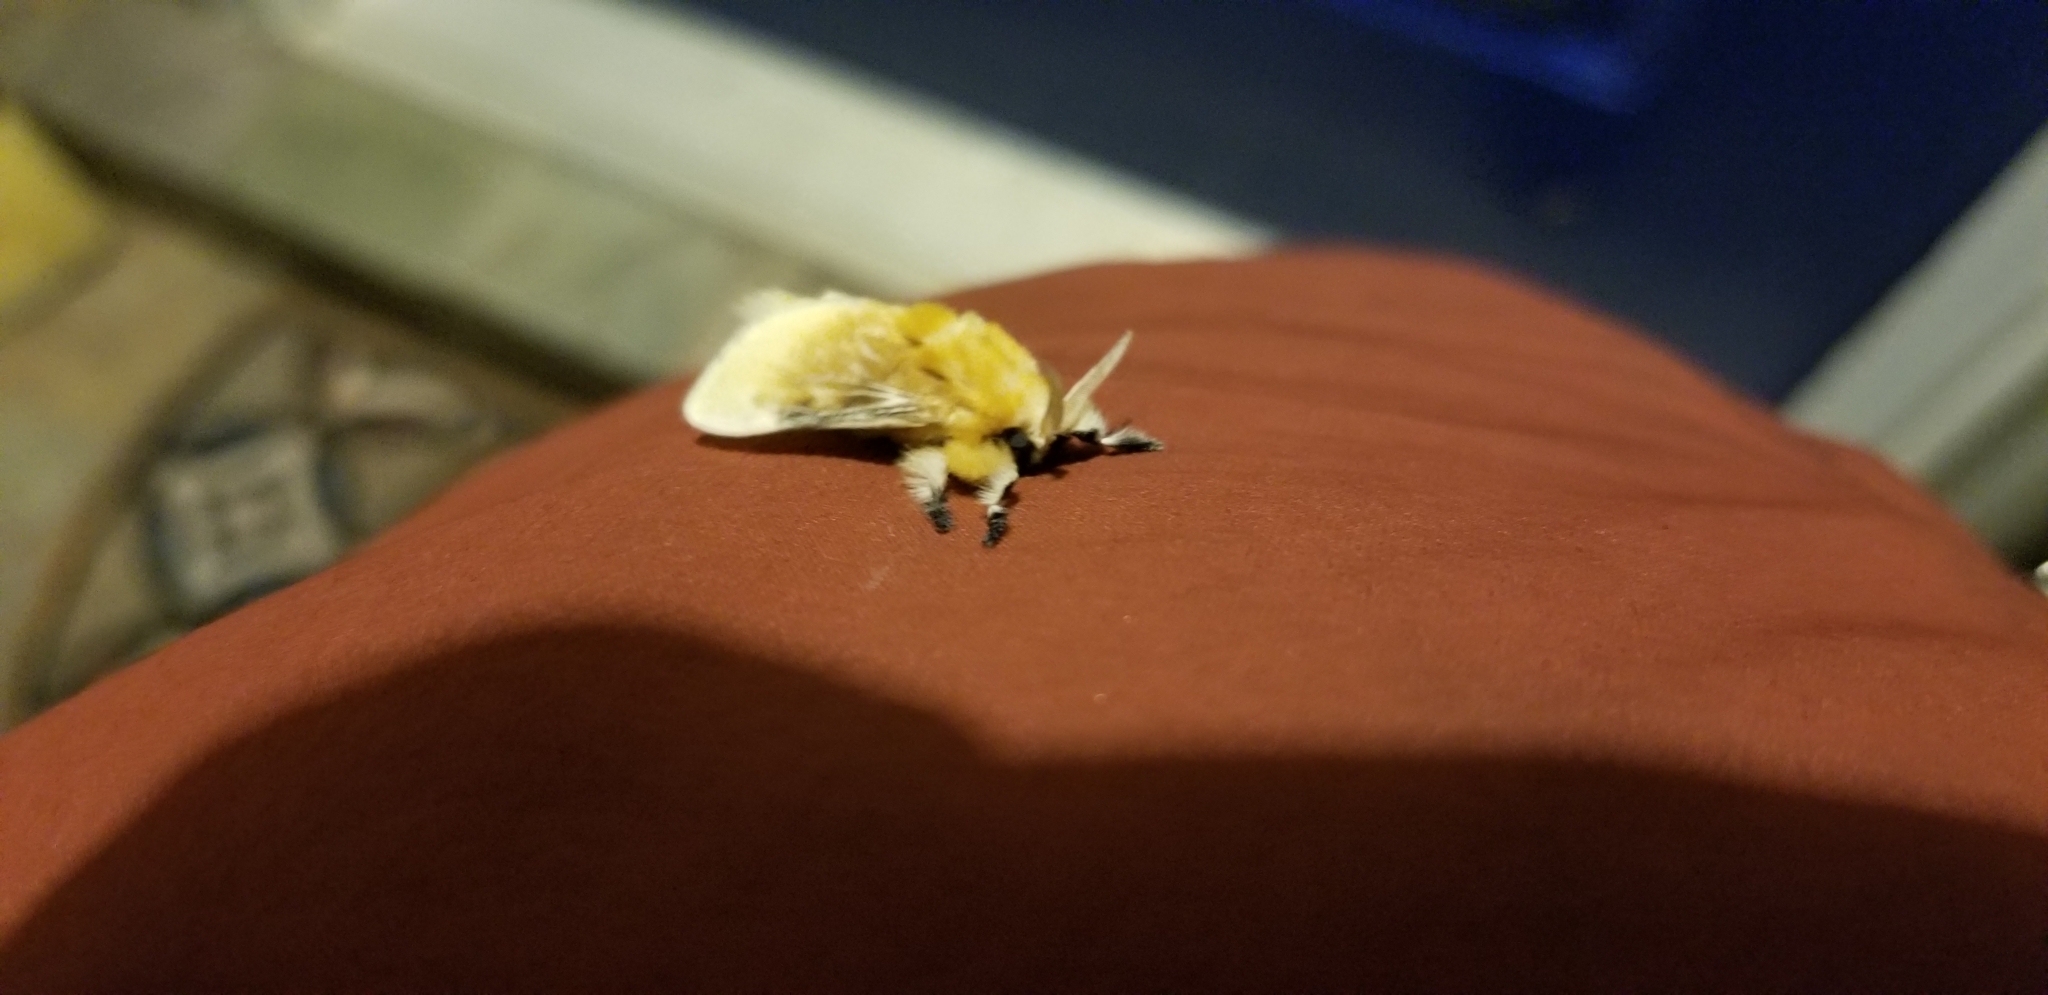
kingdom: Animalia
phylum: Arthropoda
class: Insecta
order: Lepidoptera
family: Megalopygidae
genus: Megalopyge
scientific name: Megalopyge opercularis
